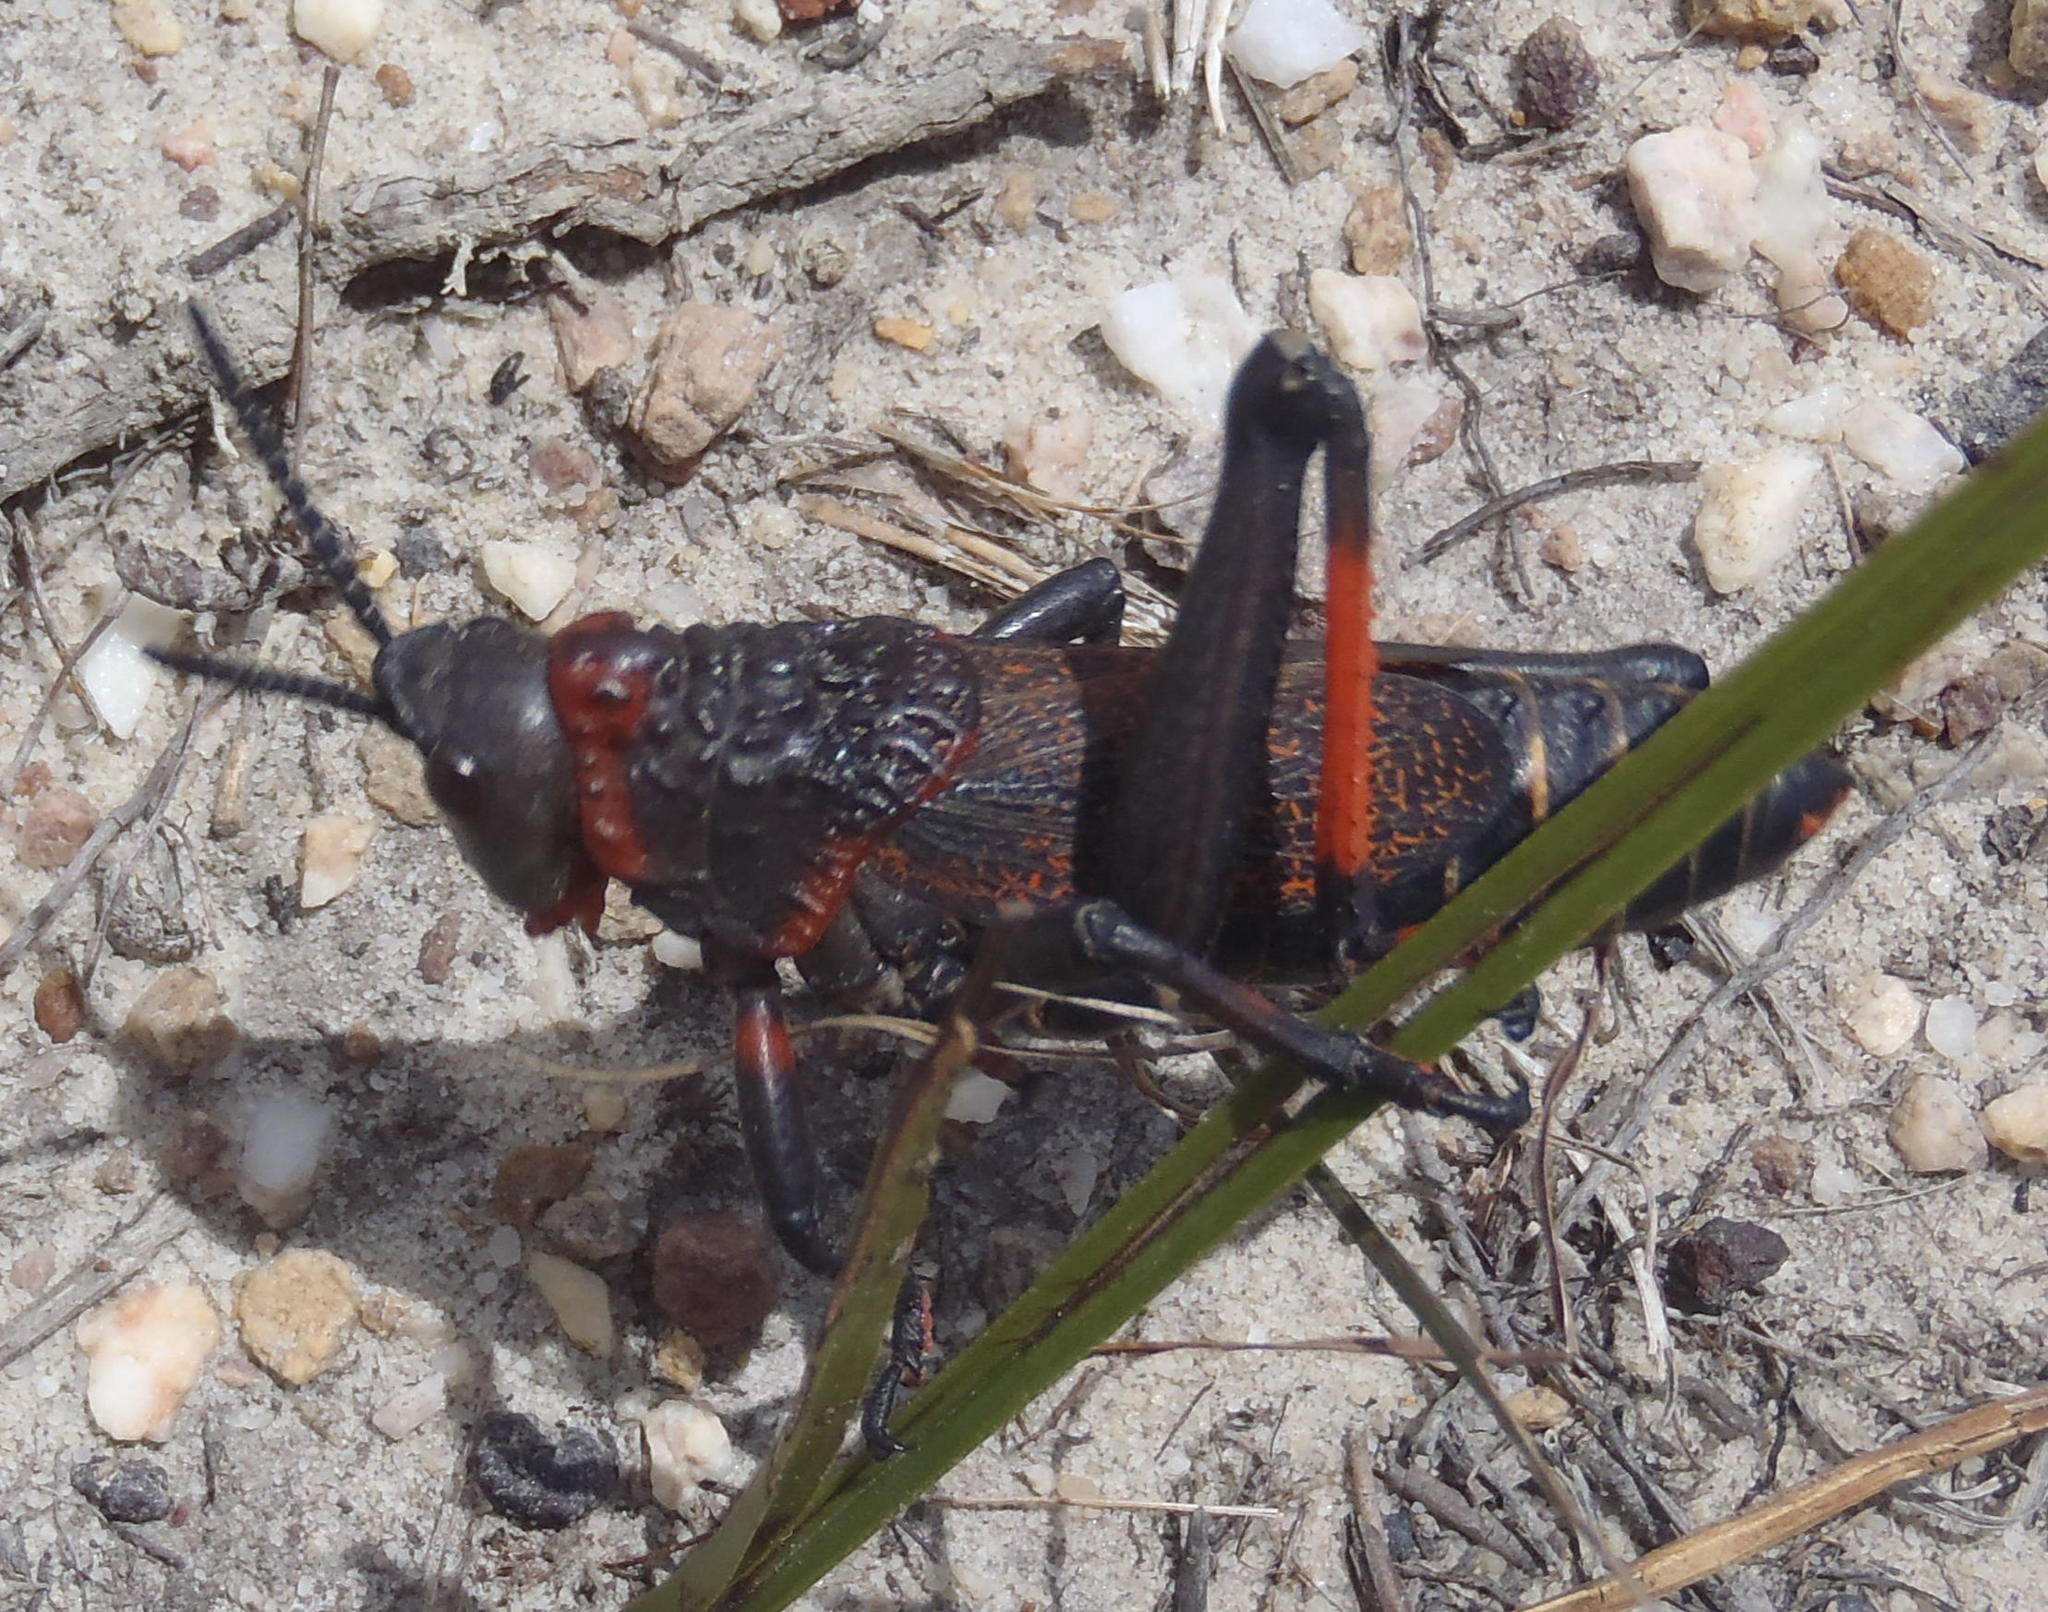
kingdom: Animalia
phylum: Arthropoda
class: Insecta
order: Orthoptera
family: Pyrgomorphidae
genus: Dictyophorus
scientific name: Dictyophorus spumans
